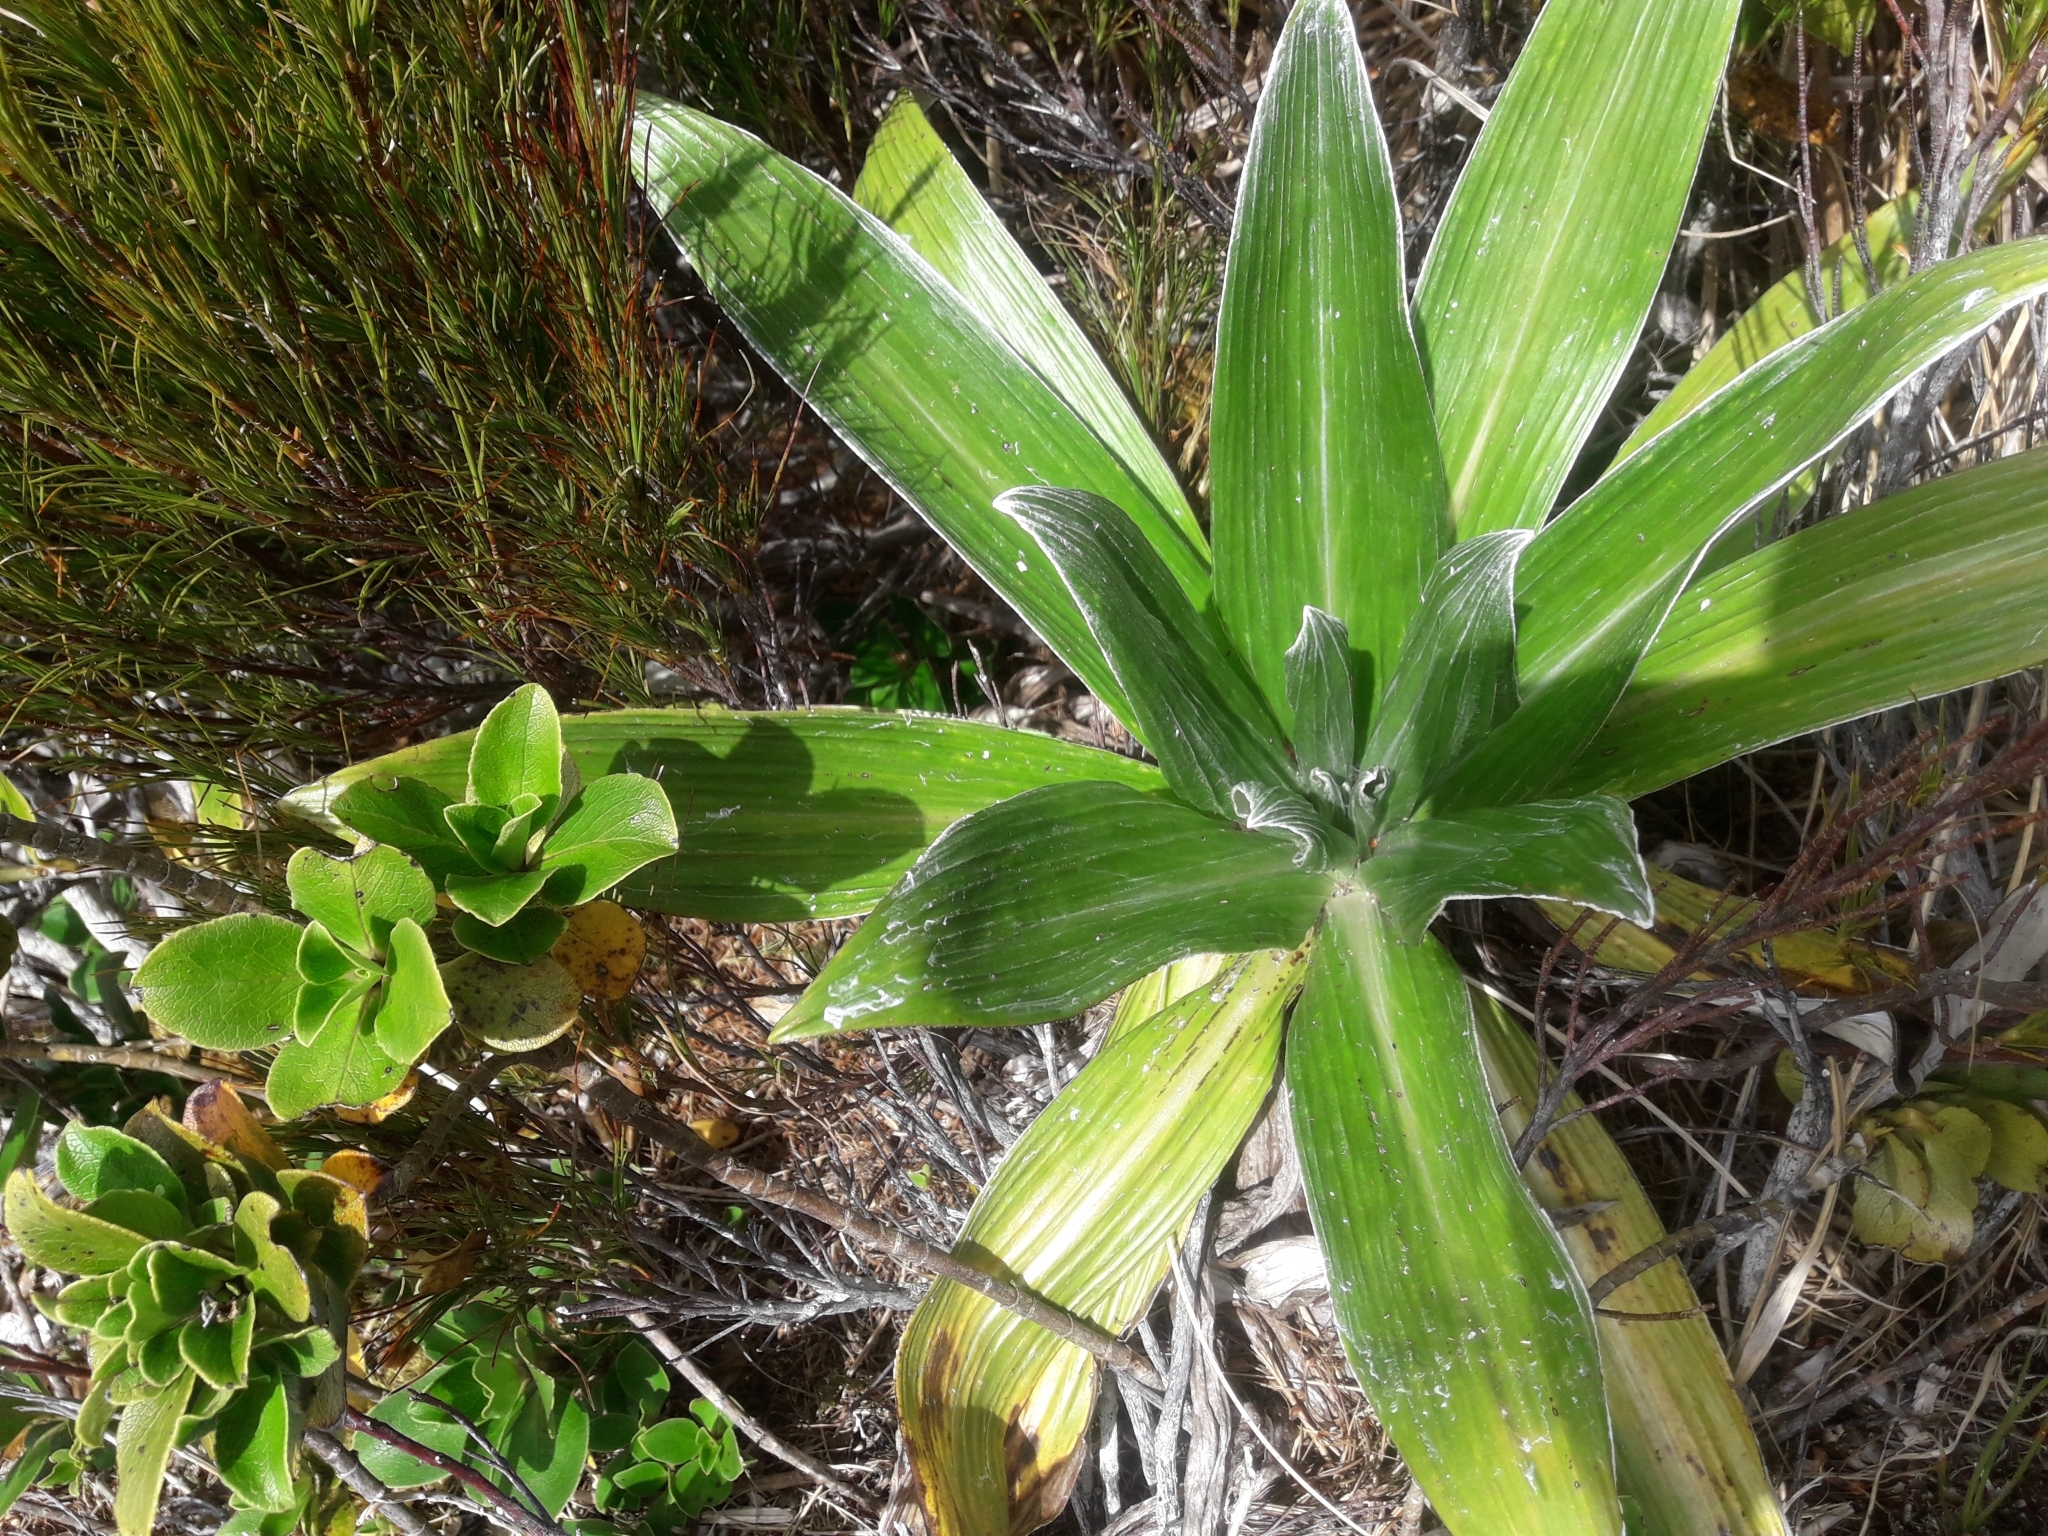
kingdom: Plantae
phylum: Tracheophyta
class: Magnoliopsida
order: Asterales
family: Asteraceae
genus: Celmisia
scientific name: Celmisia semicordata
